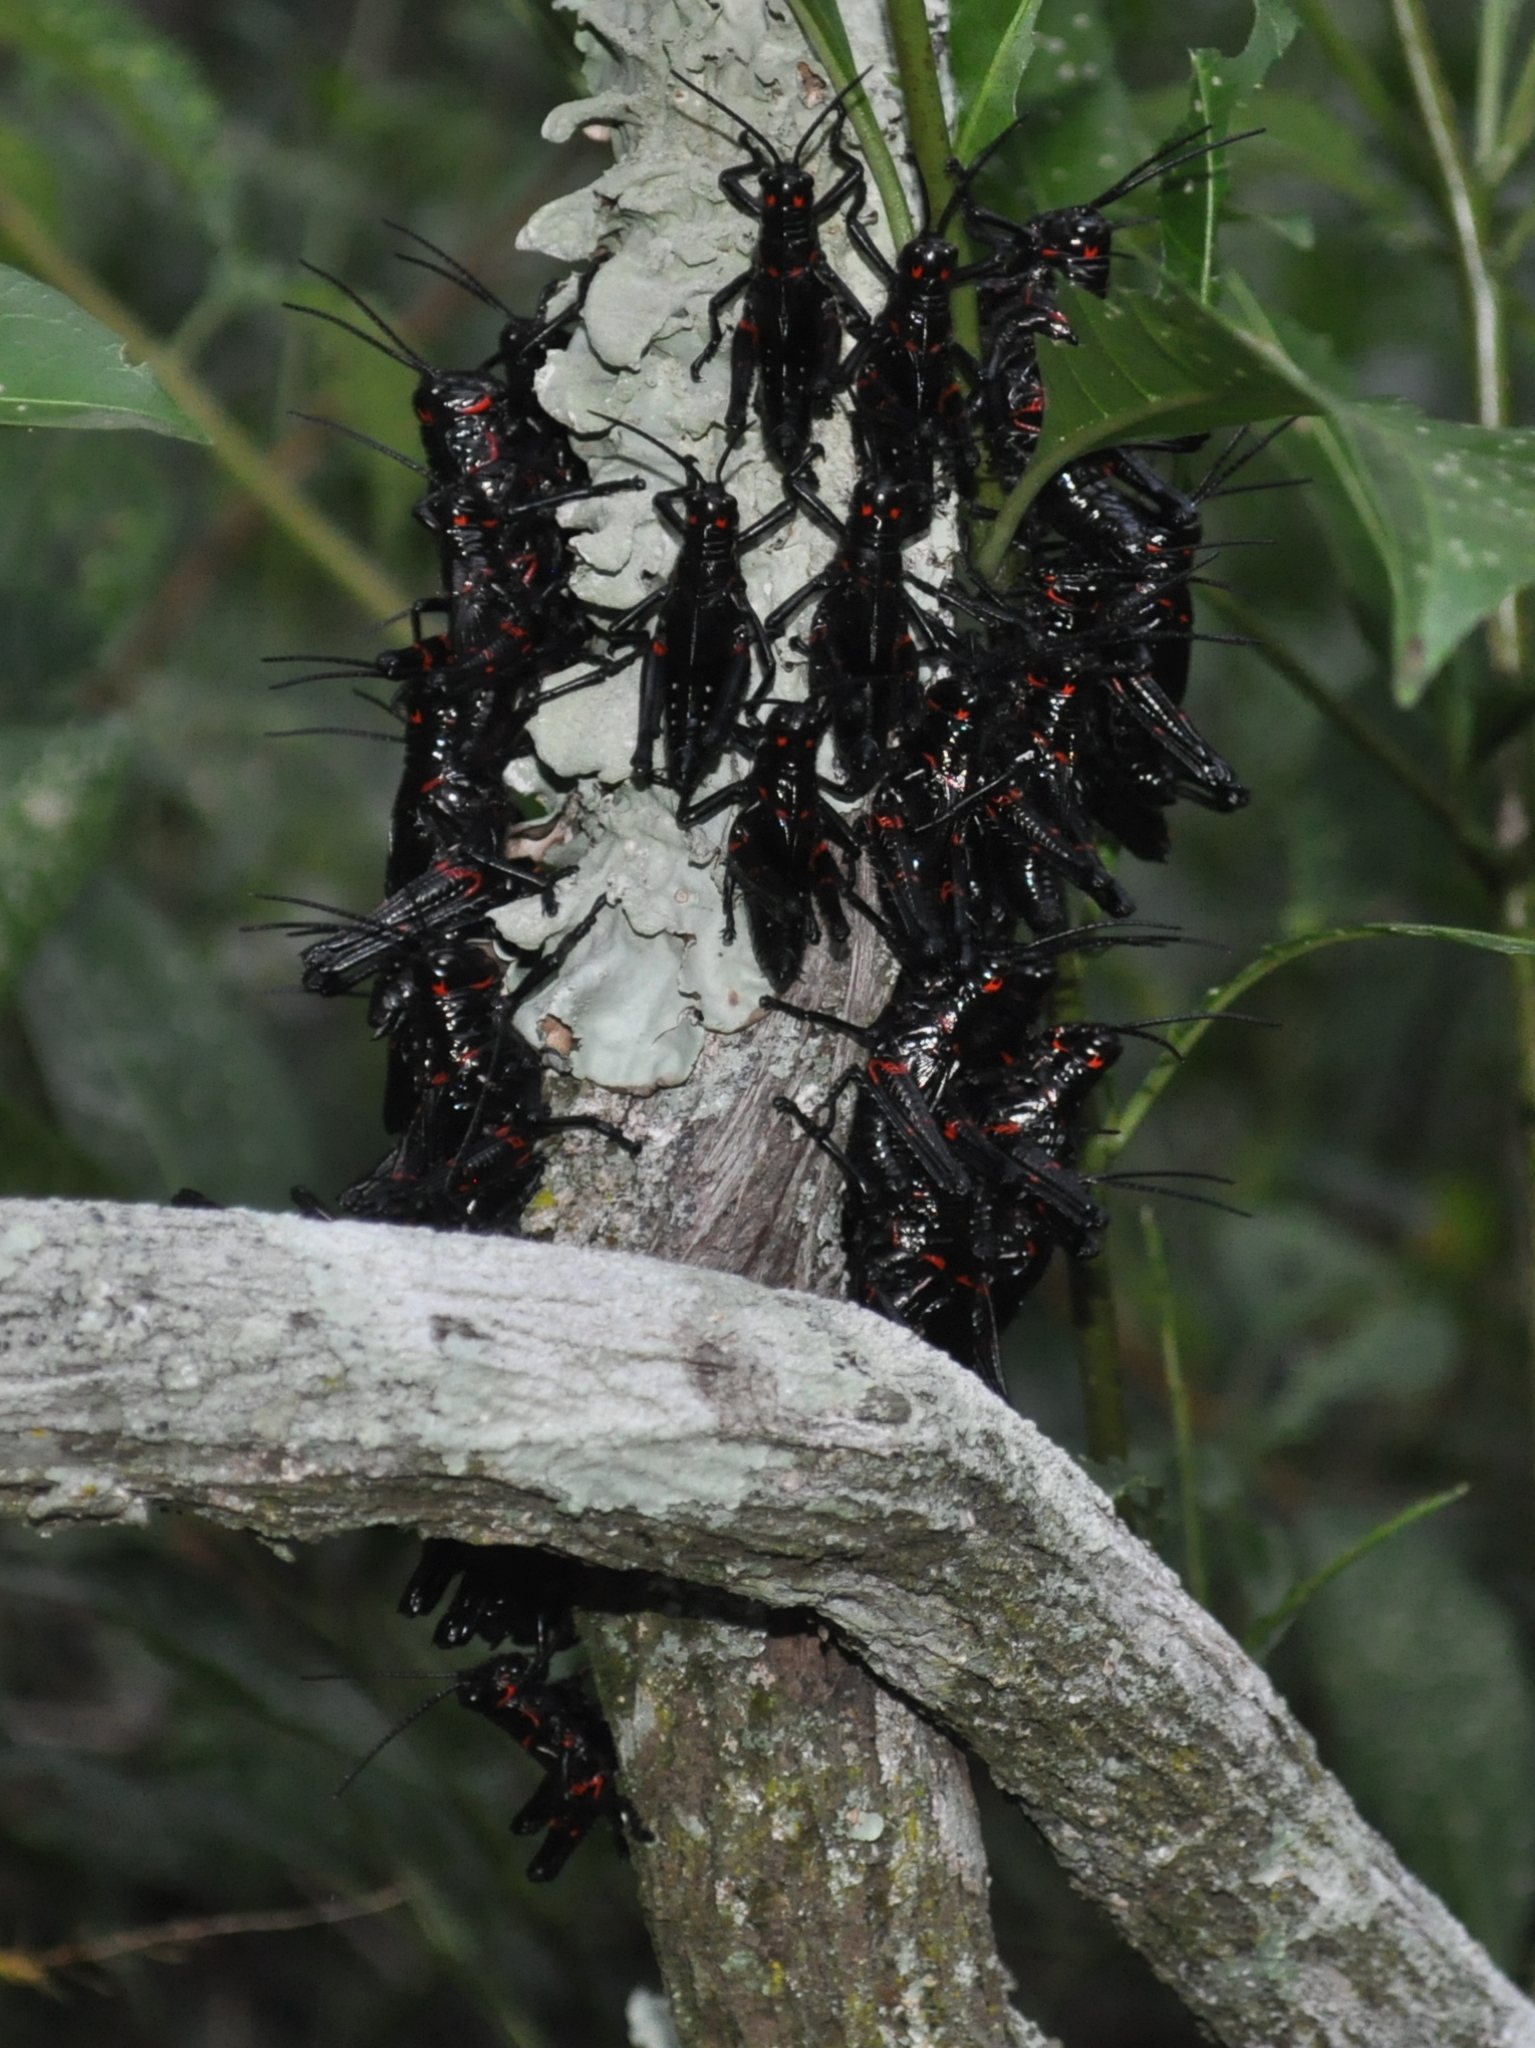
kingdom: Animalia
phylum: Arthropoda
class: Insecta
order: Orthoptera
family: Romaleidae
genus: Chromacris
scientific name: Chromacris speciosa
